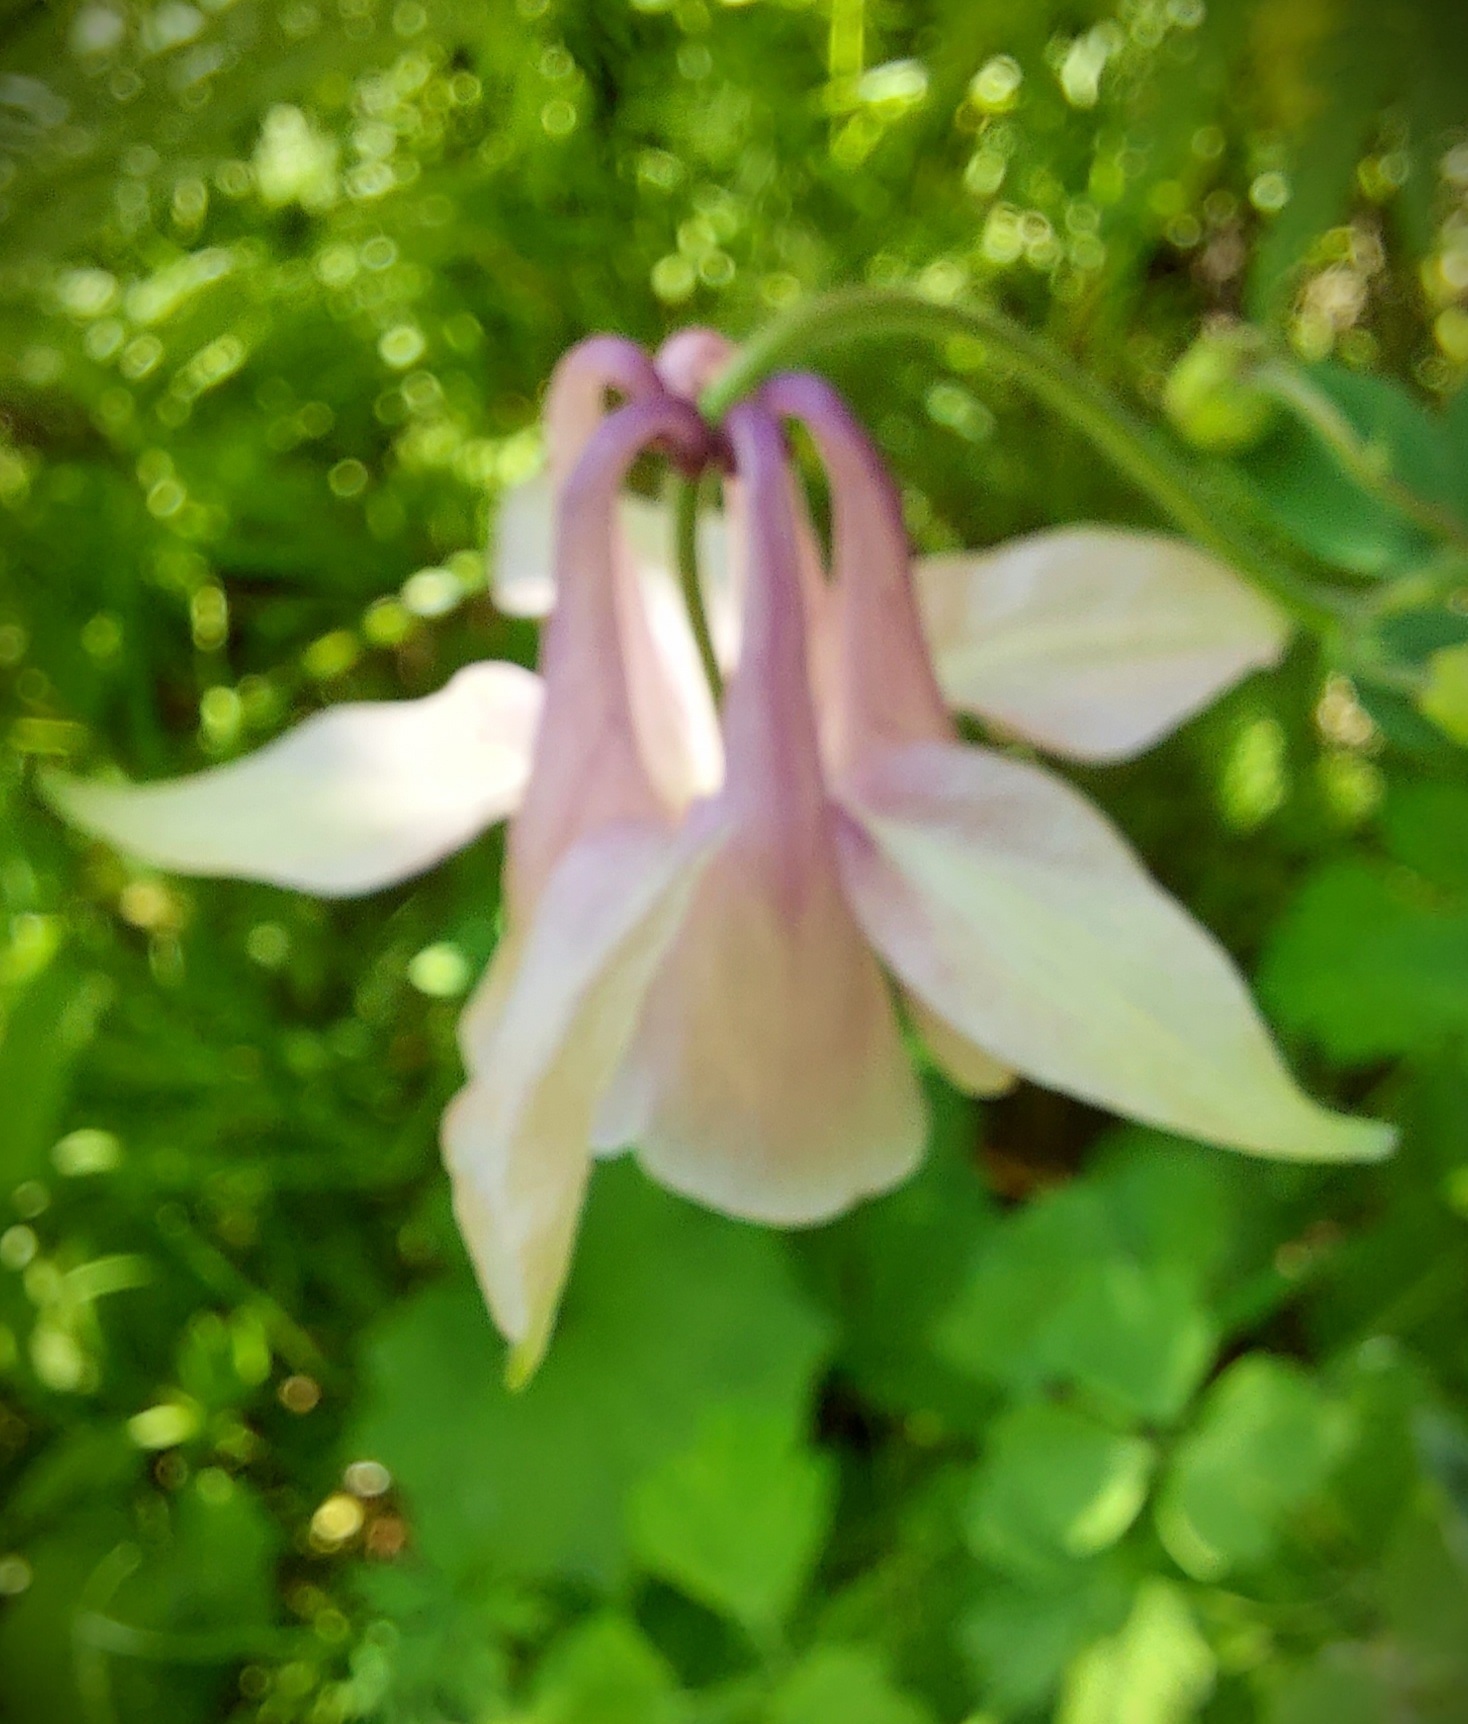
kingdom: Plantae
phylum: Tracheophyta
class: Magnoliopsida
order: Ranunculales
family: Ranunculaceae
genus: Aquilegia
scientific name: Aquilegia vulgaris
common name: Columbine
